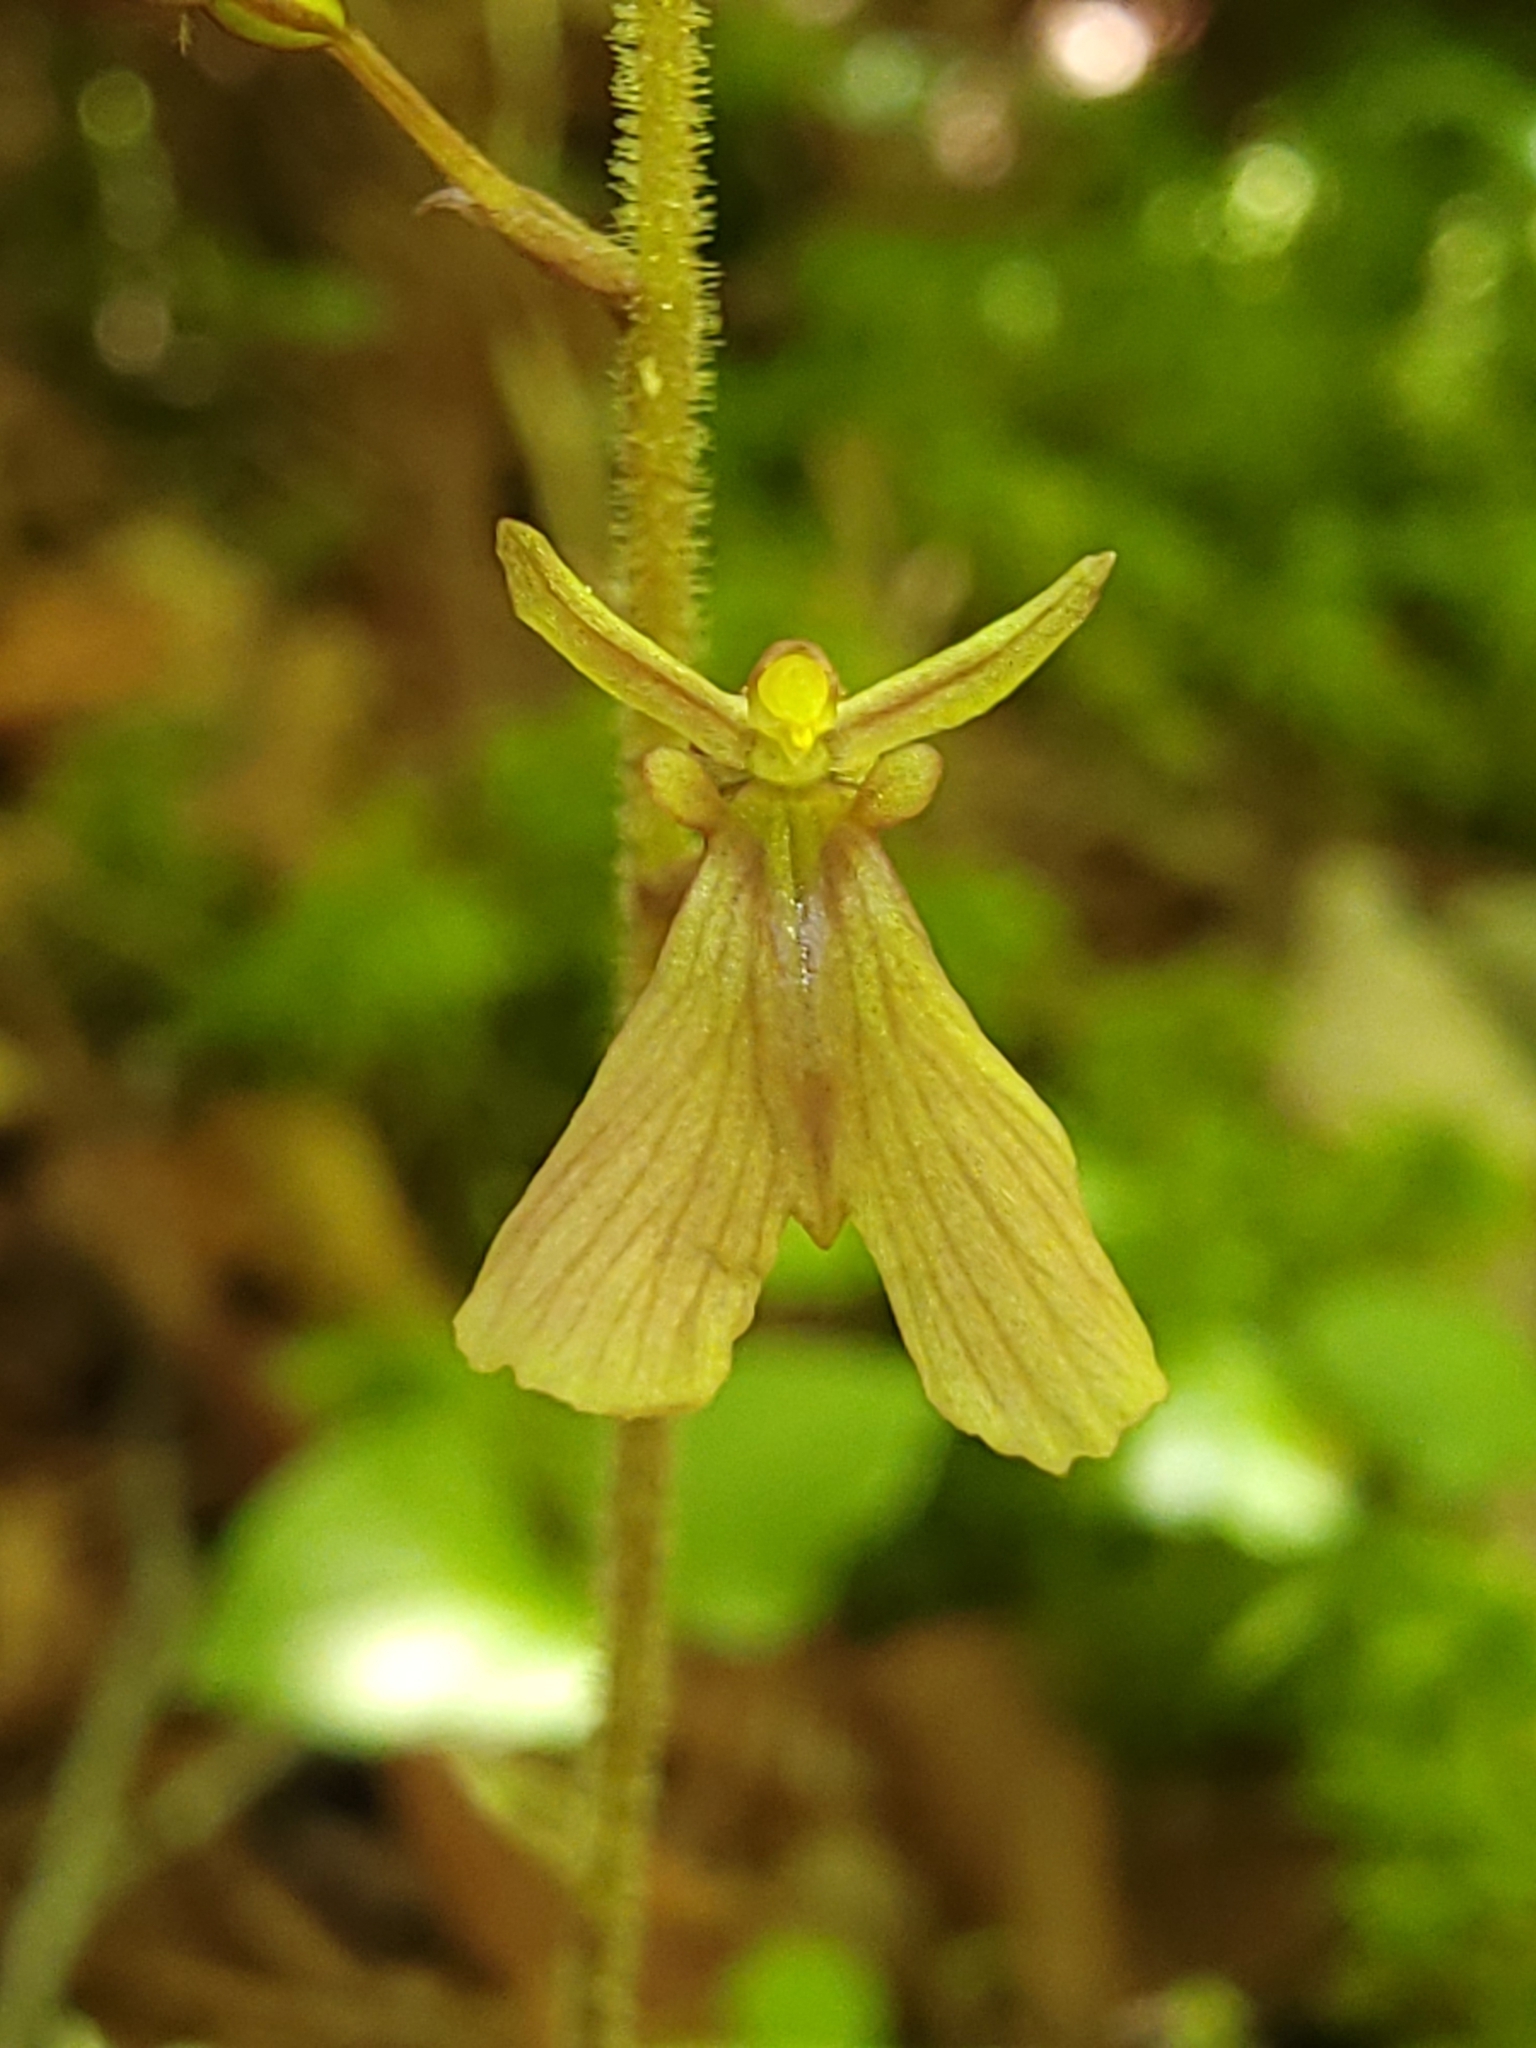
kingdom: Plantae
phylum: Tracheophyta
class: Liliopsida
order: Asparagales
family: Orchidaceae
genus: Neottia
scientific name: Neottia smallii
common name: Kidneyleaf twayblade
